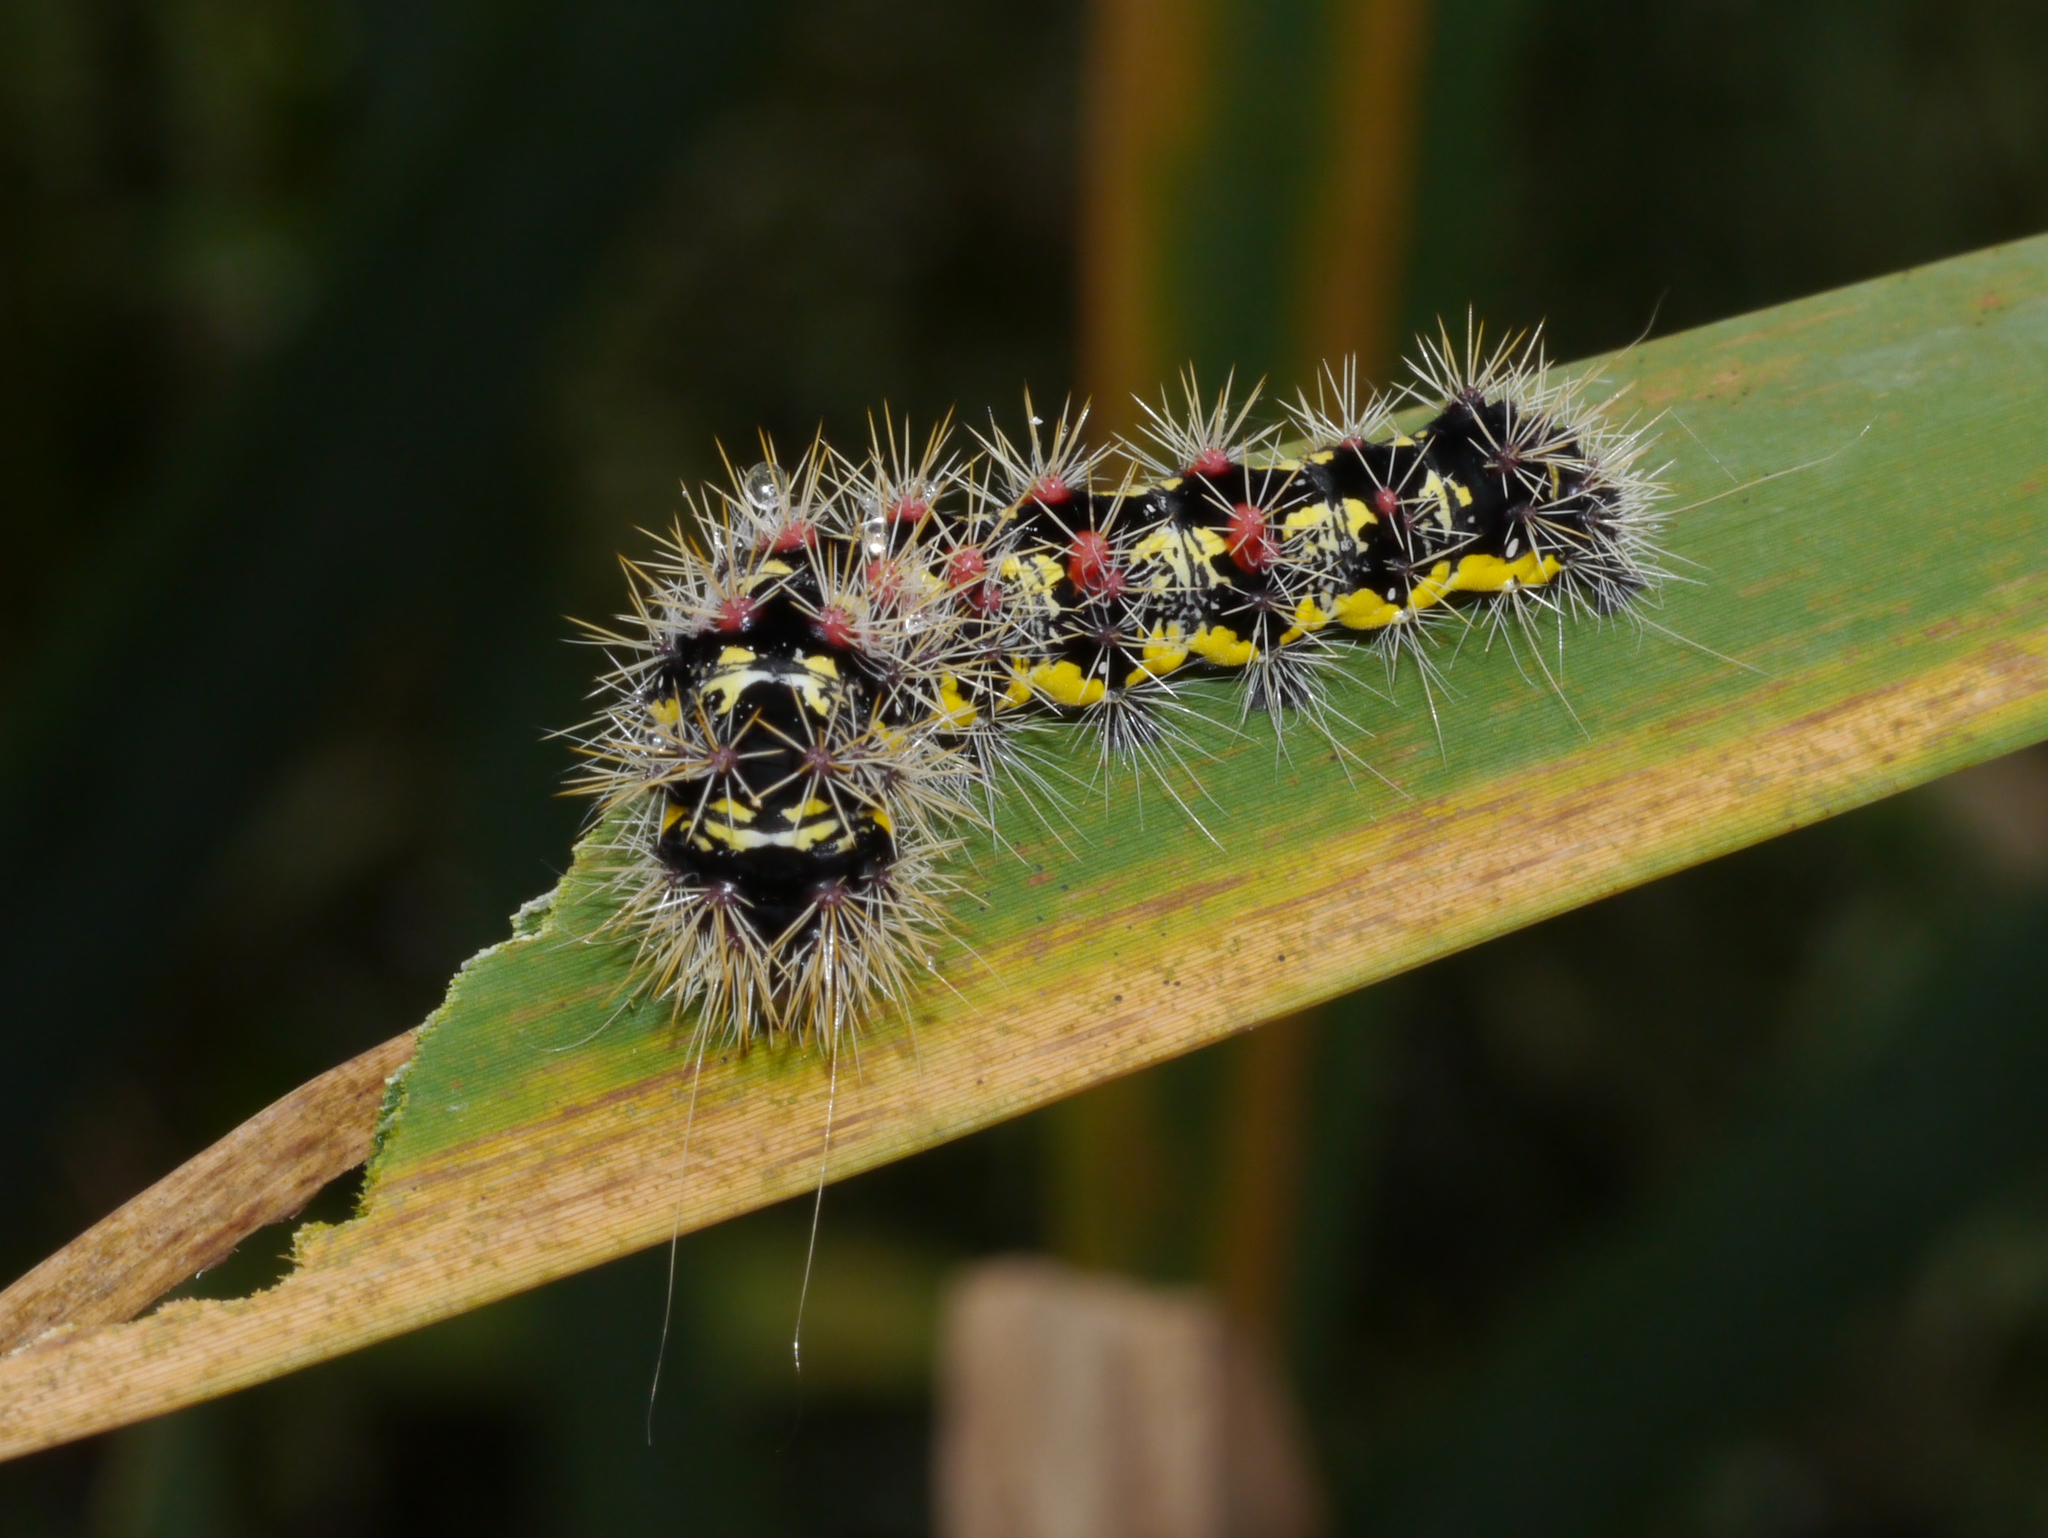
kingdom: Animalia
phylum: Arthropoda
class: Insecta
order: Lepidoptera
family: Noctuidae
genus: Acronicta
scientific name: Acronicta oblinita
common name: Smeared dagger
